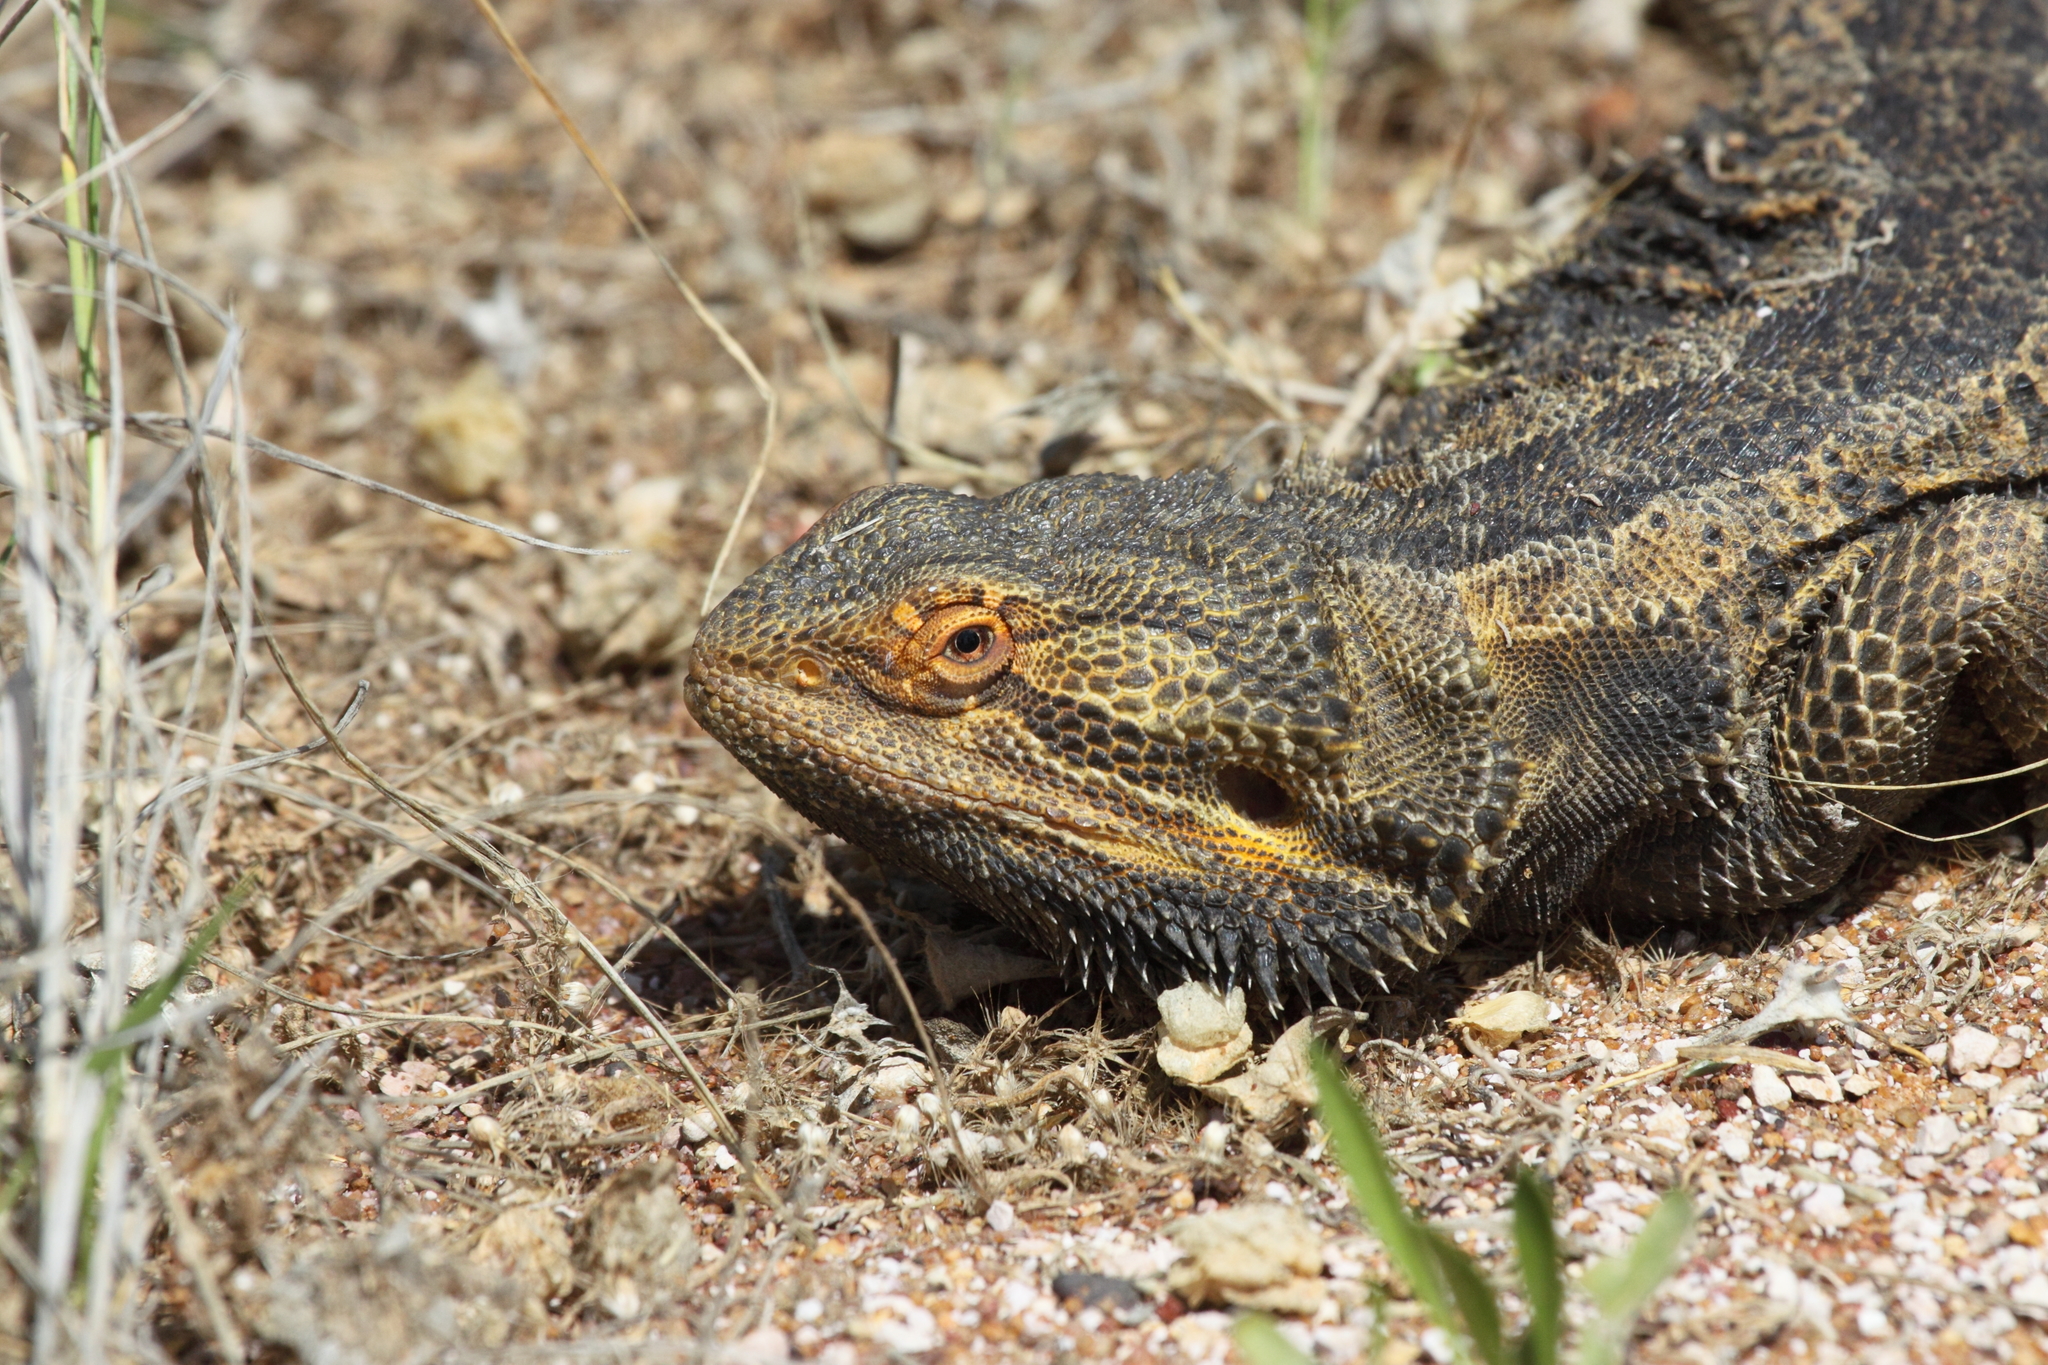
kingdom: Animalia
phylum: Chordata
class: Squamata
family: Agamidae
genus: Pogona
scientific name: Pogona vitticeps
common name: Central bearded dragon
